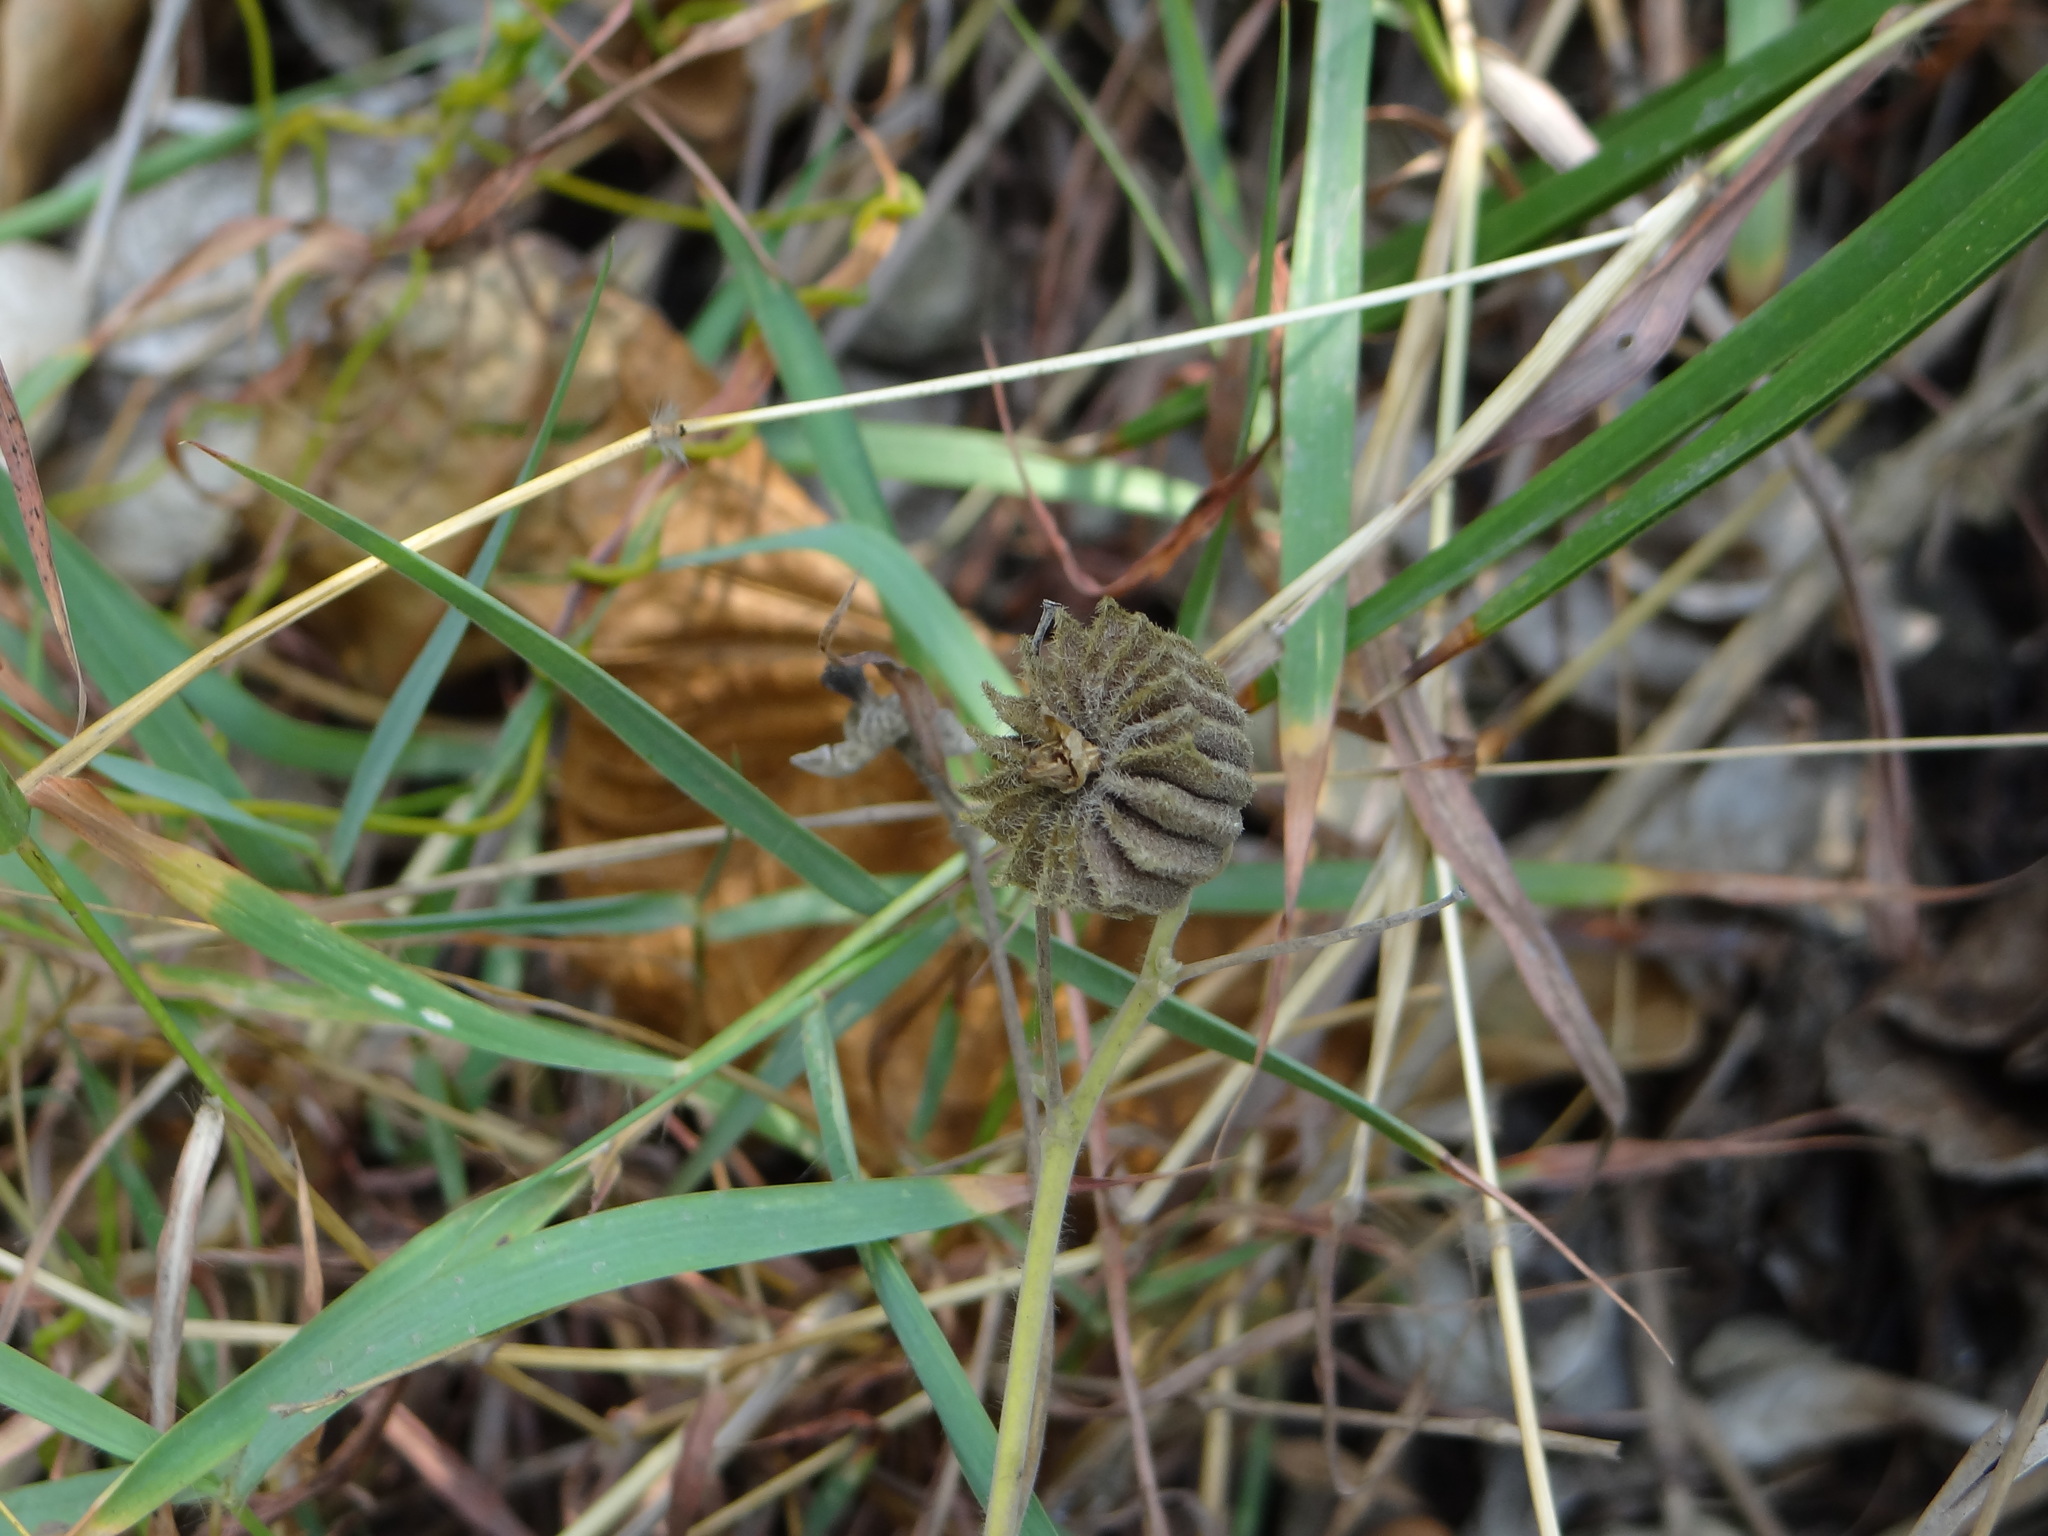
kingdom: Plantae
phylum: Tracheophyta
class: Magnoliopsida
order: Malvales
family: Malvaceae
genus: Abutilon
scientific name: Abutilon indicum
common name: Indian abutilon
